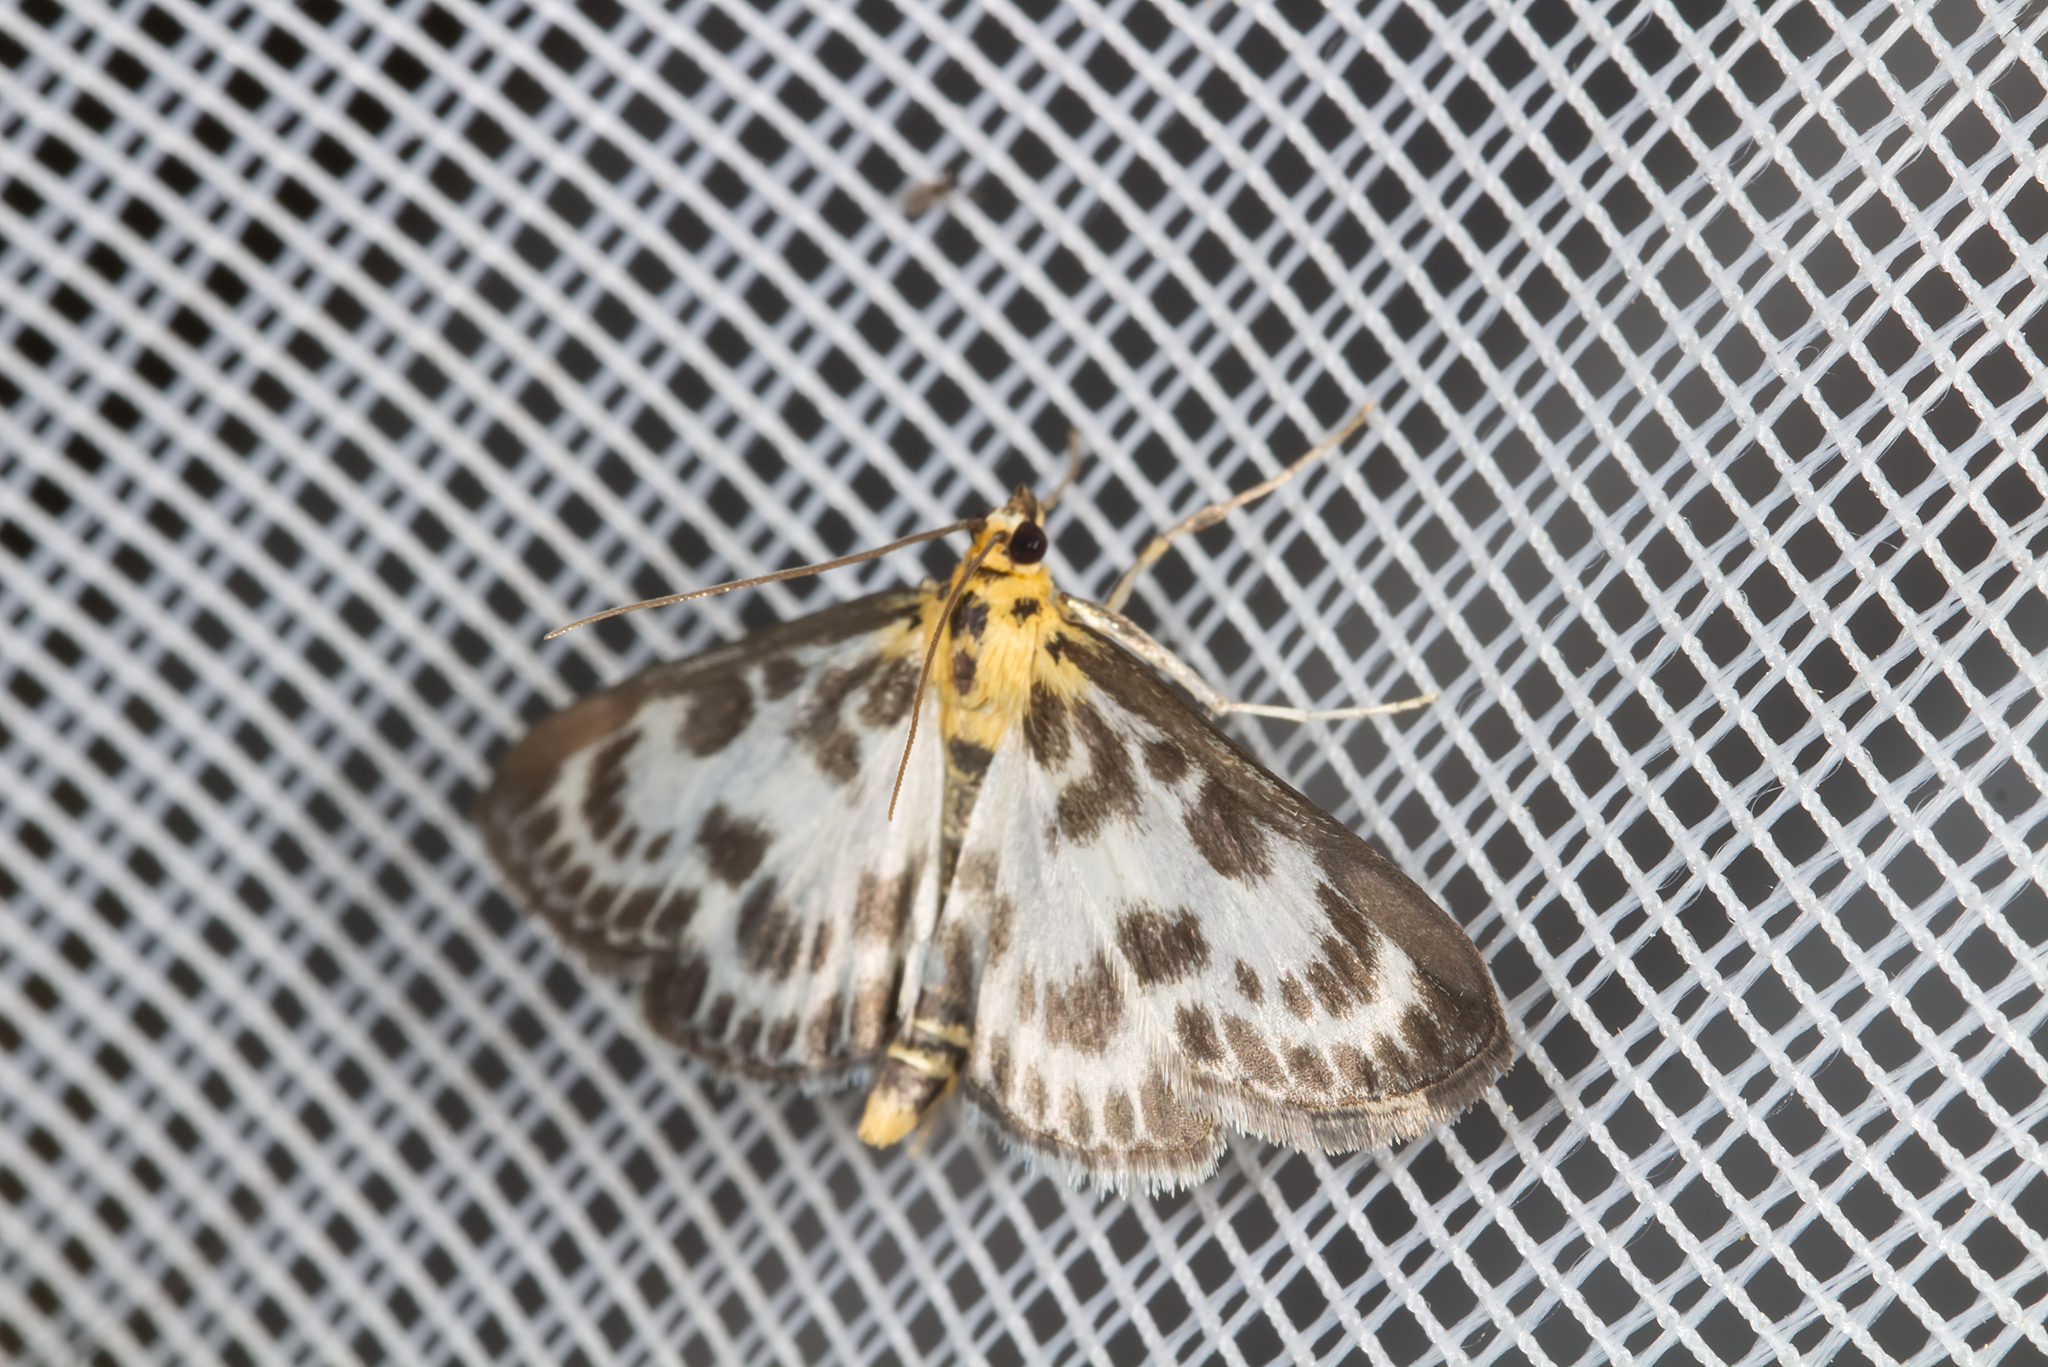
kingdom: Animalia
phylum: Arthropoda
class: Insecta
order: Lepidoptera
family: Crambidae
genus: Anania
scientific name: Anania hortulata
